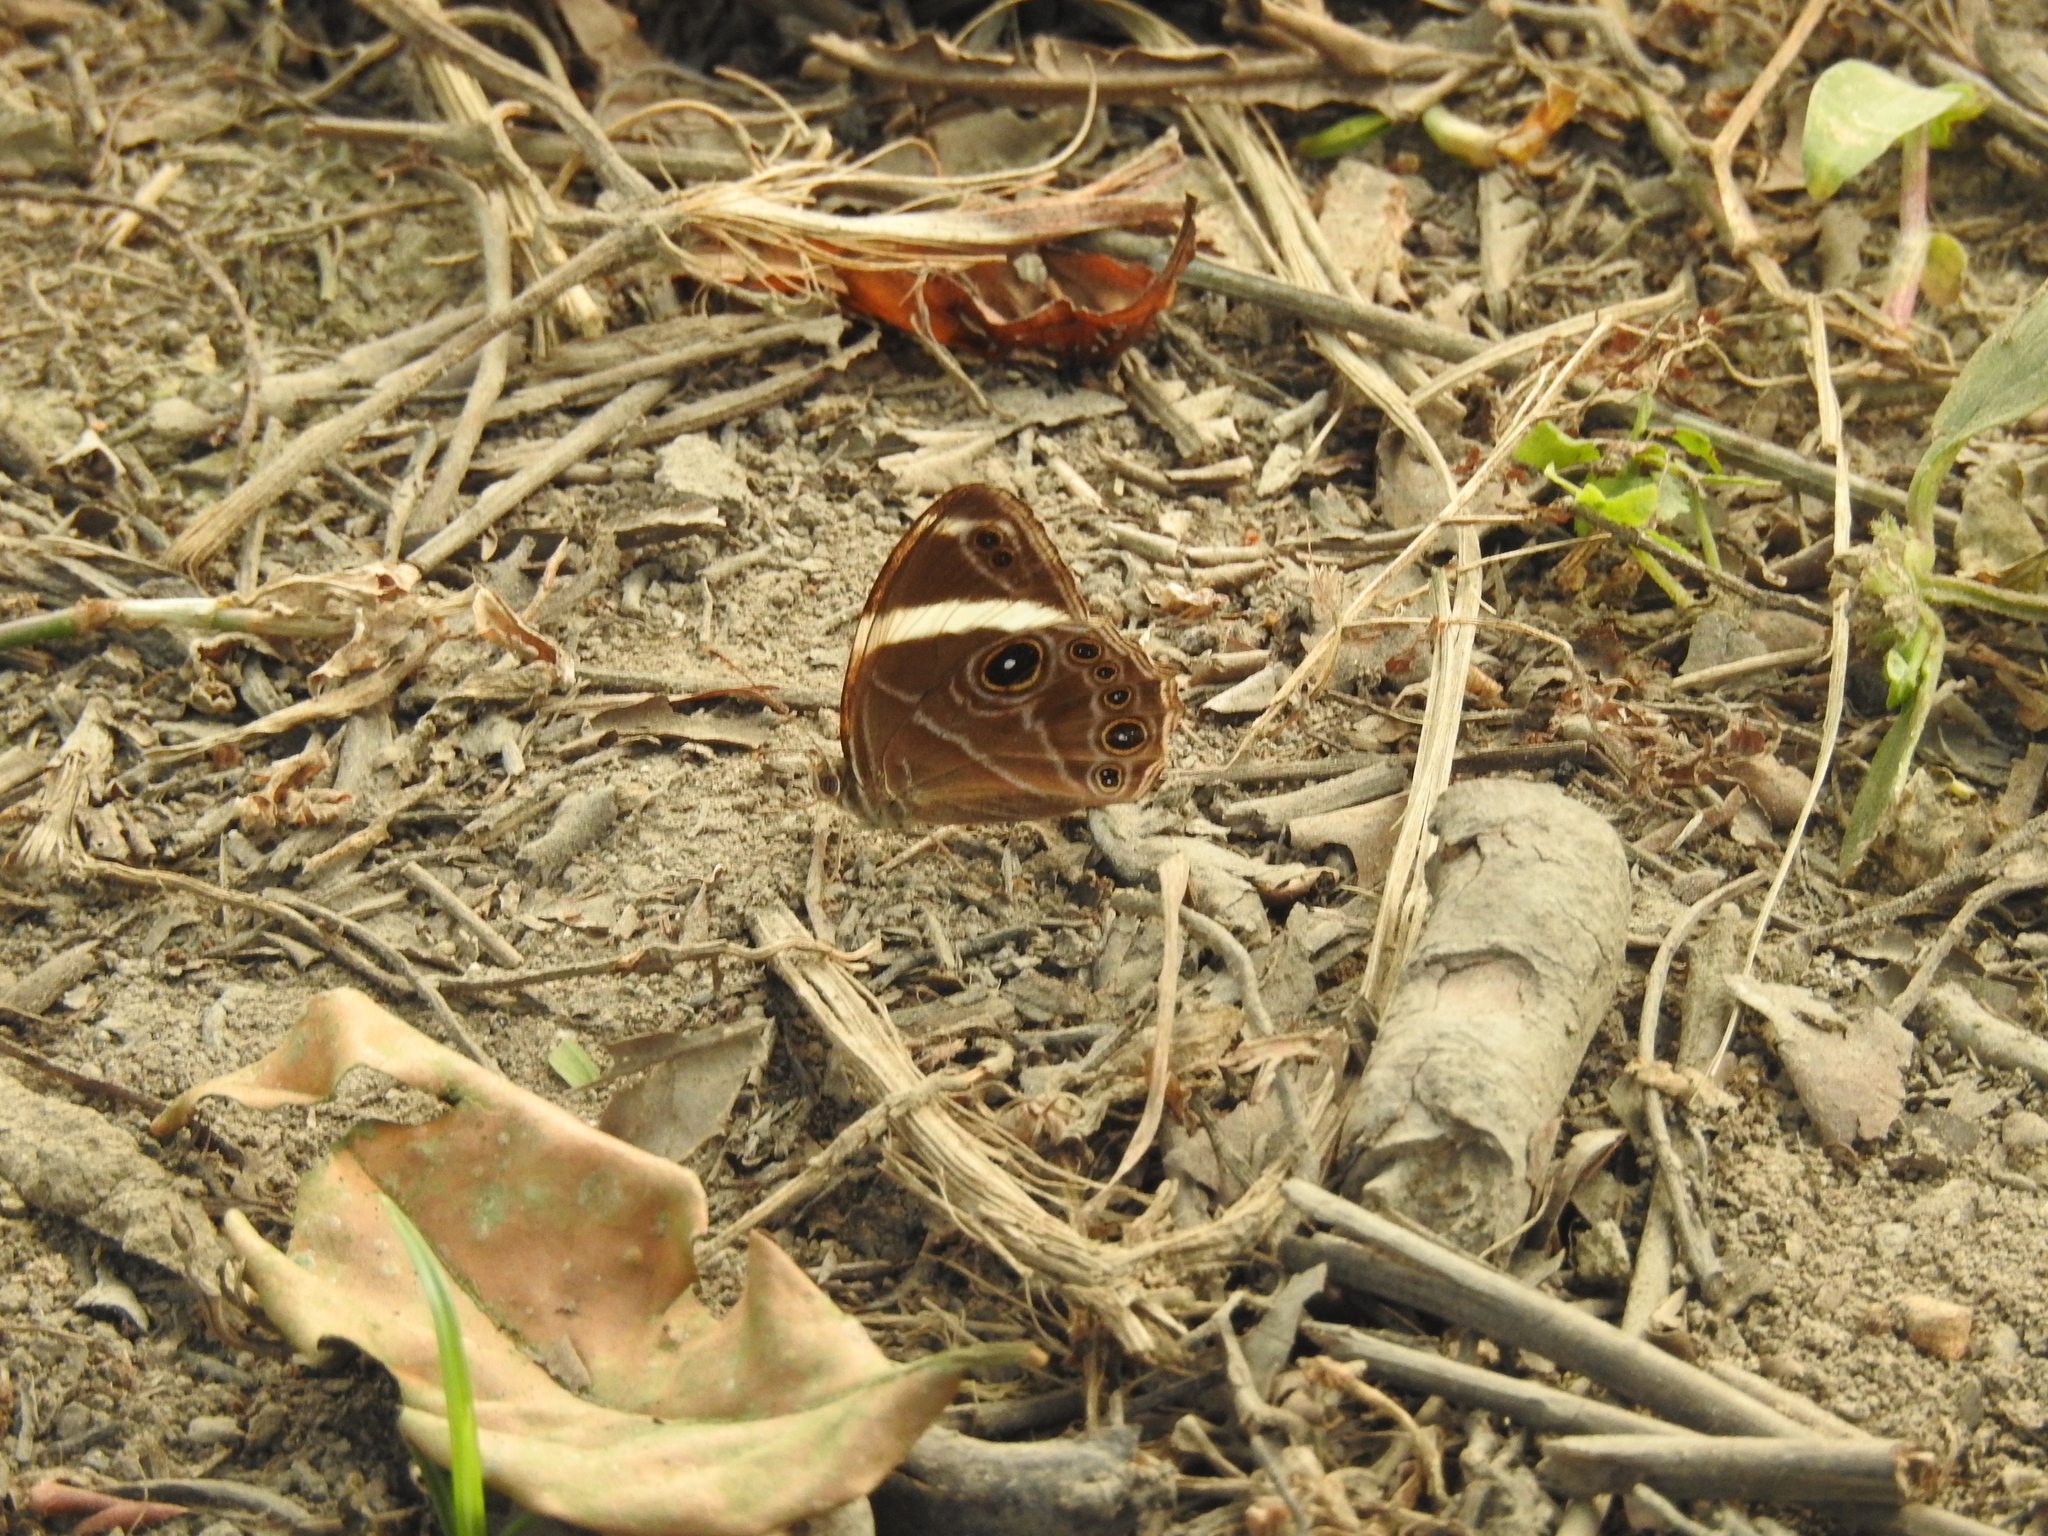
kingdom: Animalia
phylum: Arthropoda
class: Insecta
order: Lepidoptera
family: Nymphalidae
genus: Lethe
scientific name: Lethe confusa
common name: Banded treebrown
